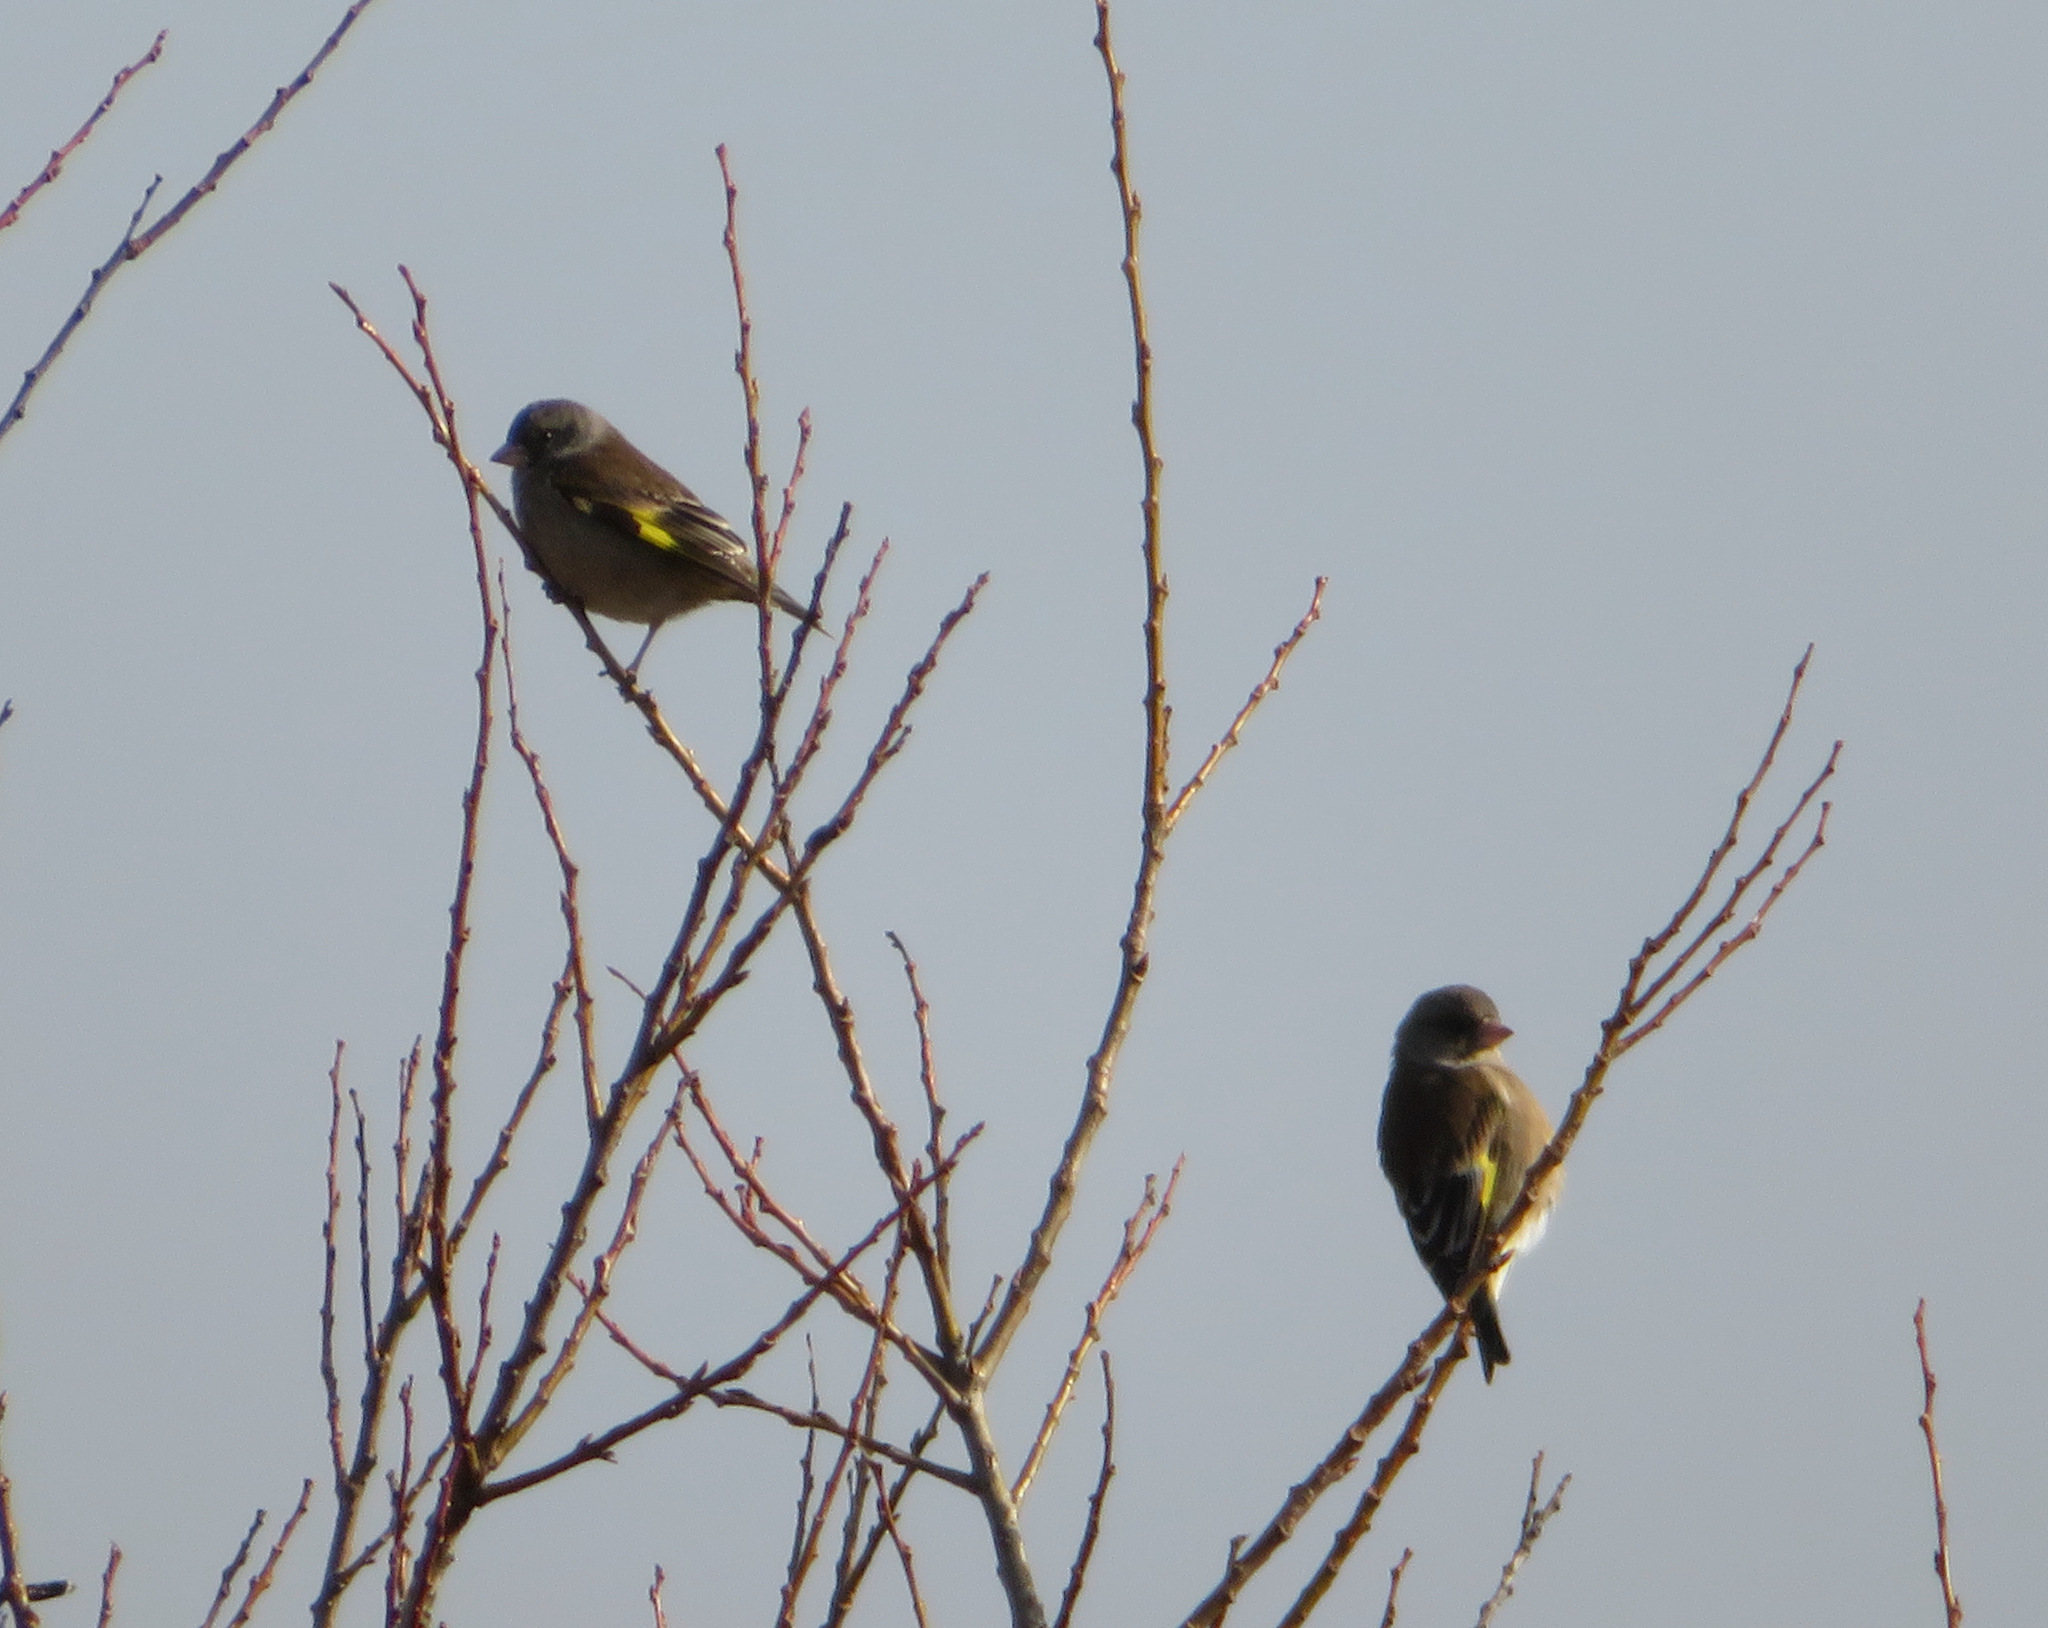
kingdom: Plantae
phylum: Tracheophyta
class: Liliopsida
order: Poales
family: Poaceae
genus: Chloris
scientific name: Chloris sinica
